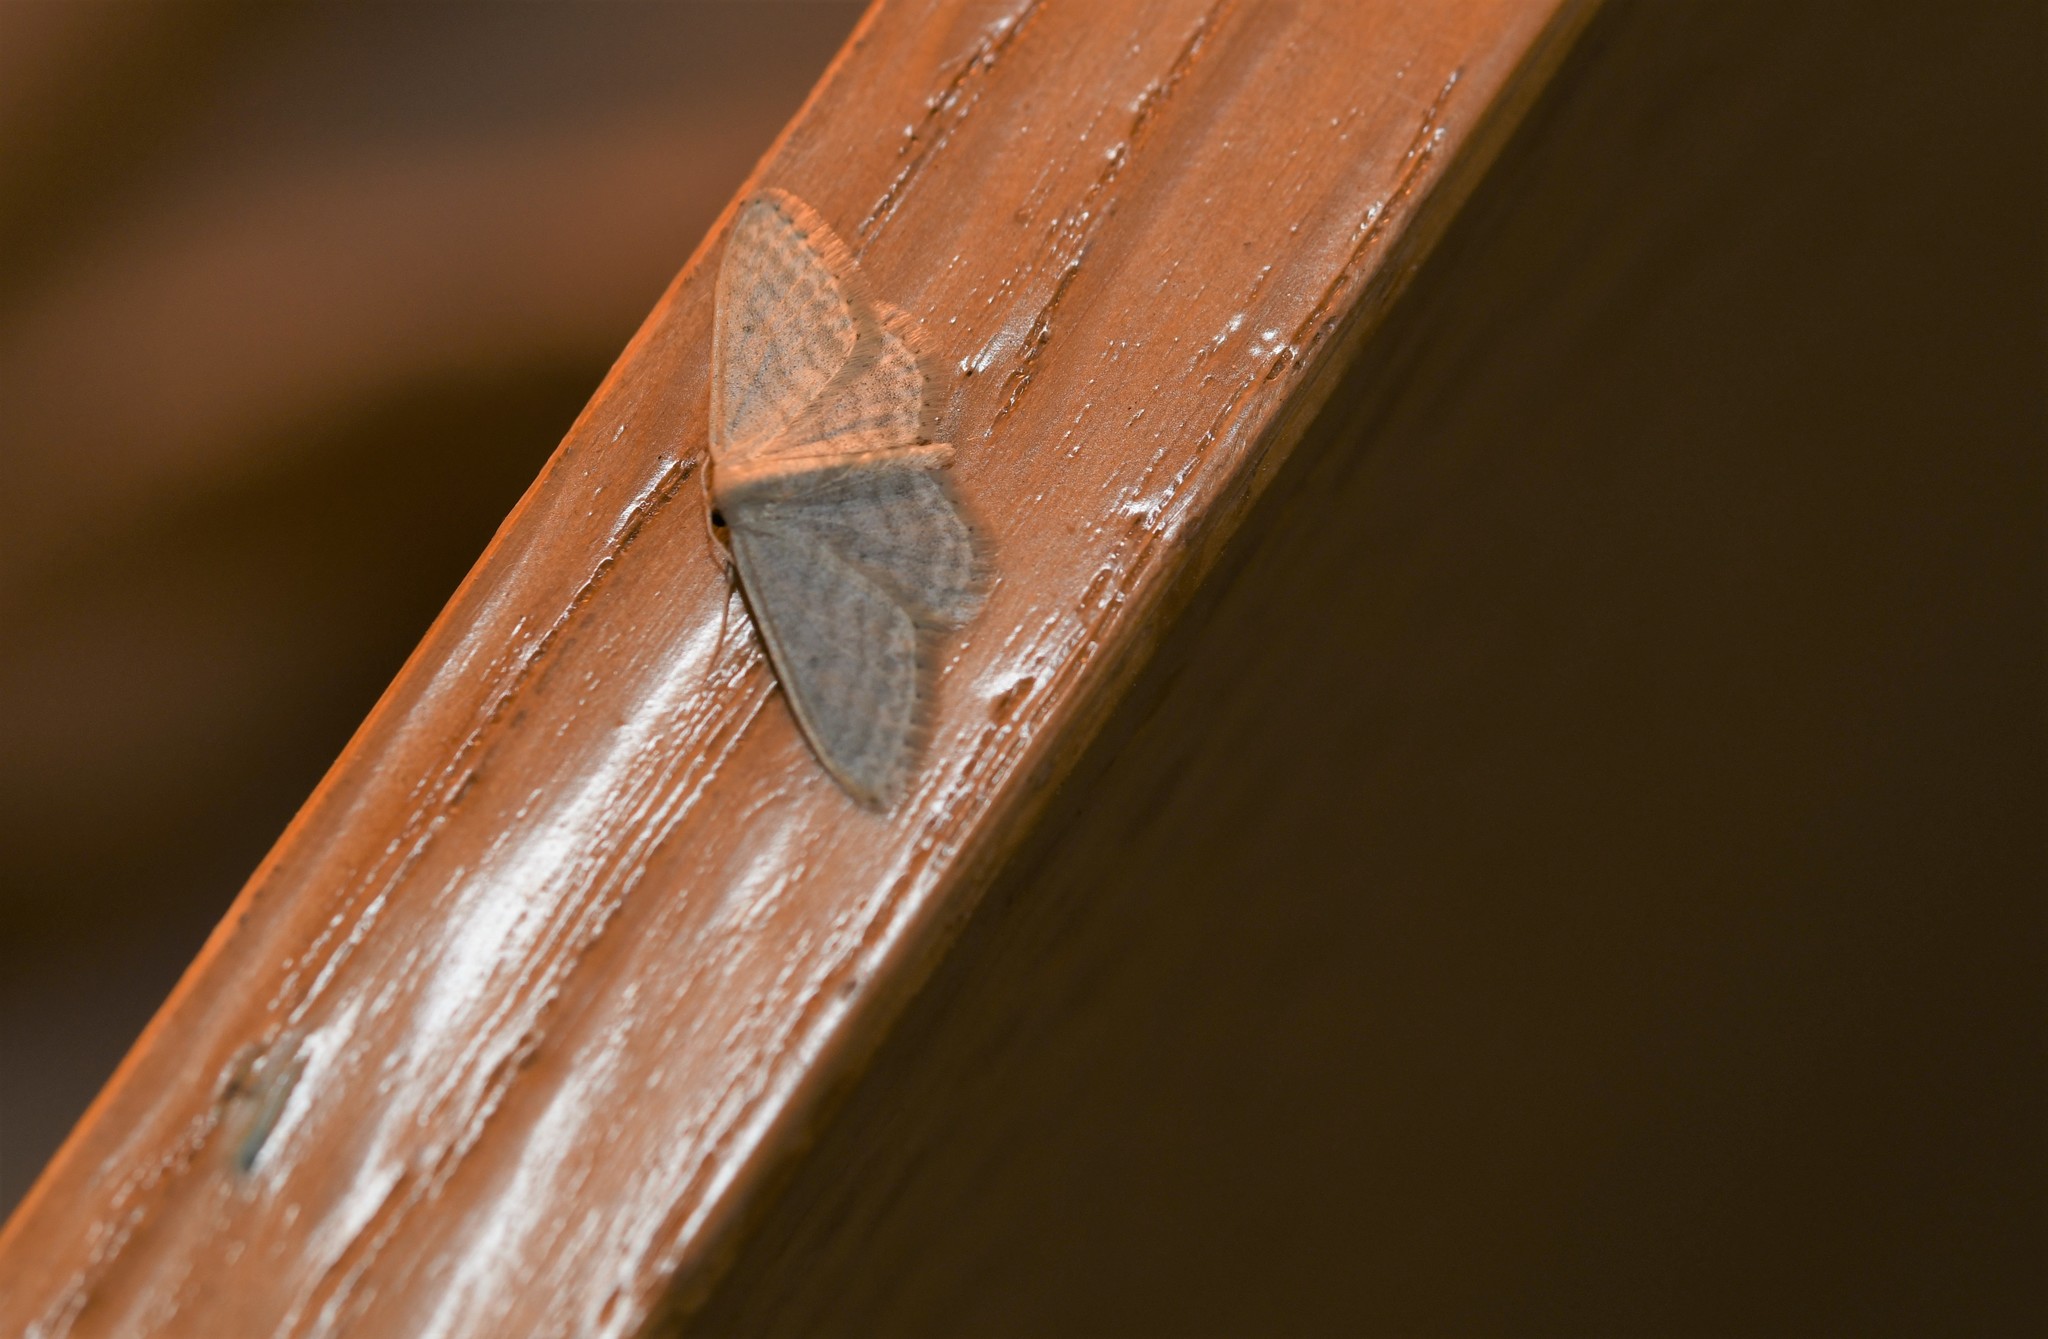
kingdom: Animalia
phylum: Arthropoda
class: Insecta
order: Lepidoptera
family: Geometridae
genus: Idaea
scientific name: Idaea subsericeata
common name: Satin wave
